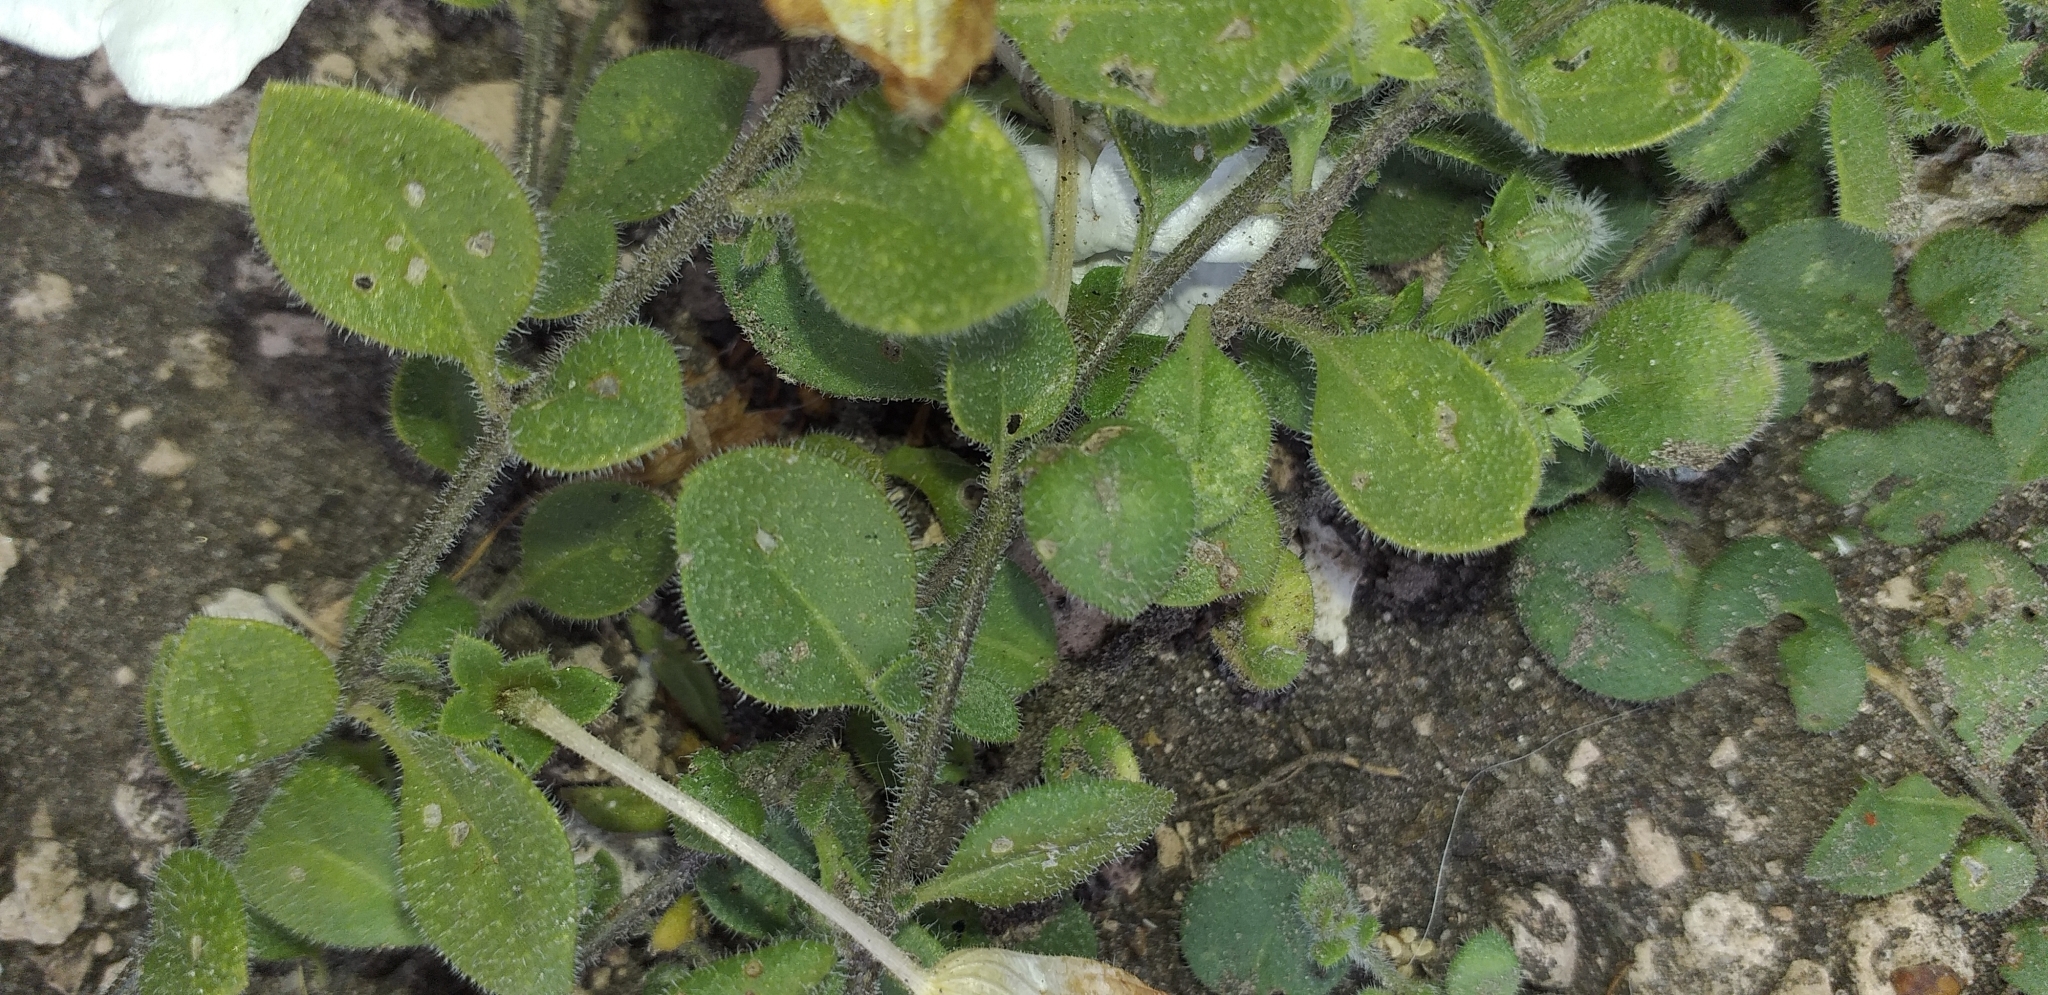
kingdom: Plantae
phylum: Tracheophyta
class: Magnoliopsida
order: Solanales
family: Solanaceae
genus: Nierembergia
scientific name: Nierembergia calycina
